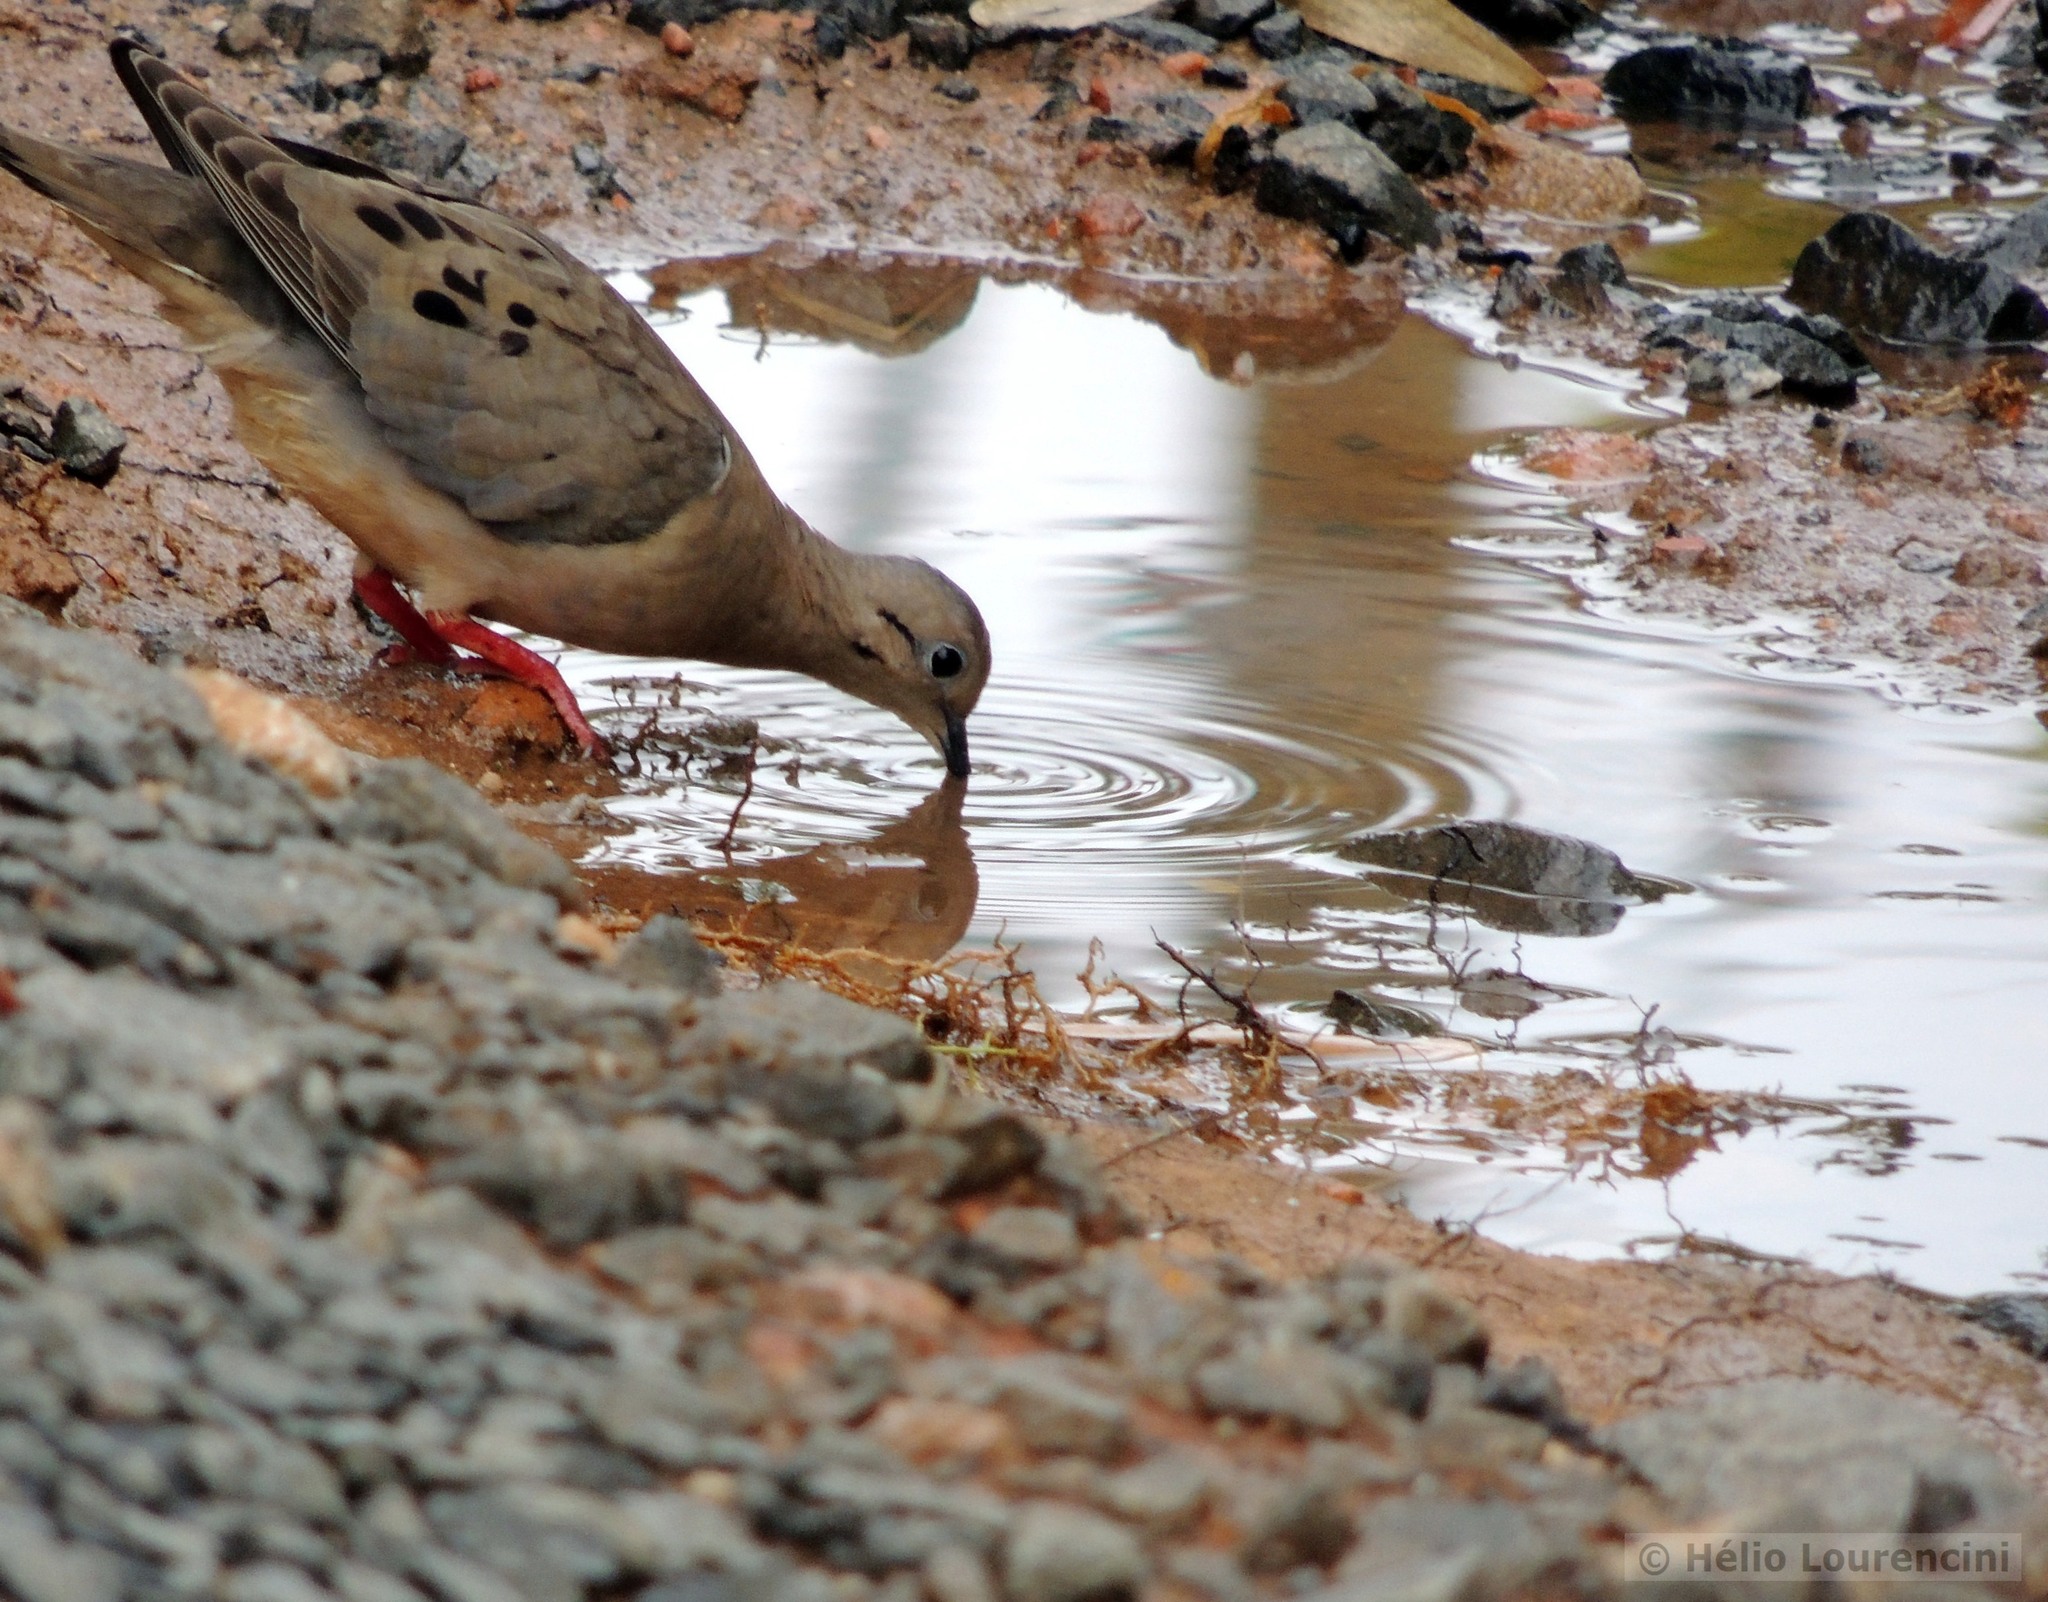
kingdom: Animalia
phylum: Chordata
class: Aves
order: Columbiformes
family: Columbidae
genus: Zenaida
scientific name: Zenaida auriculata
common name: Eared dove
